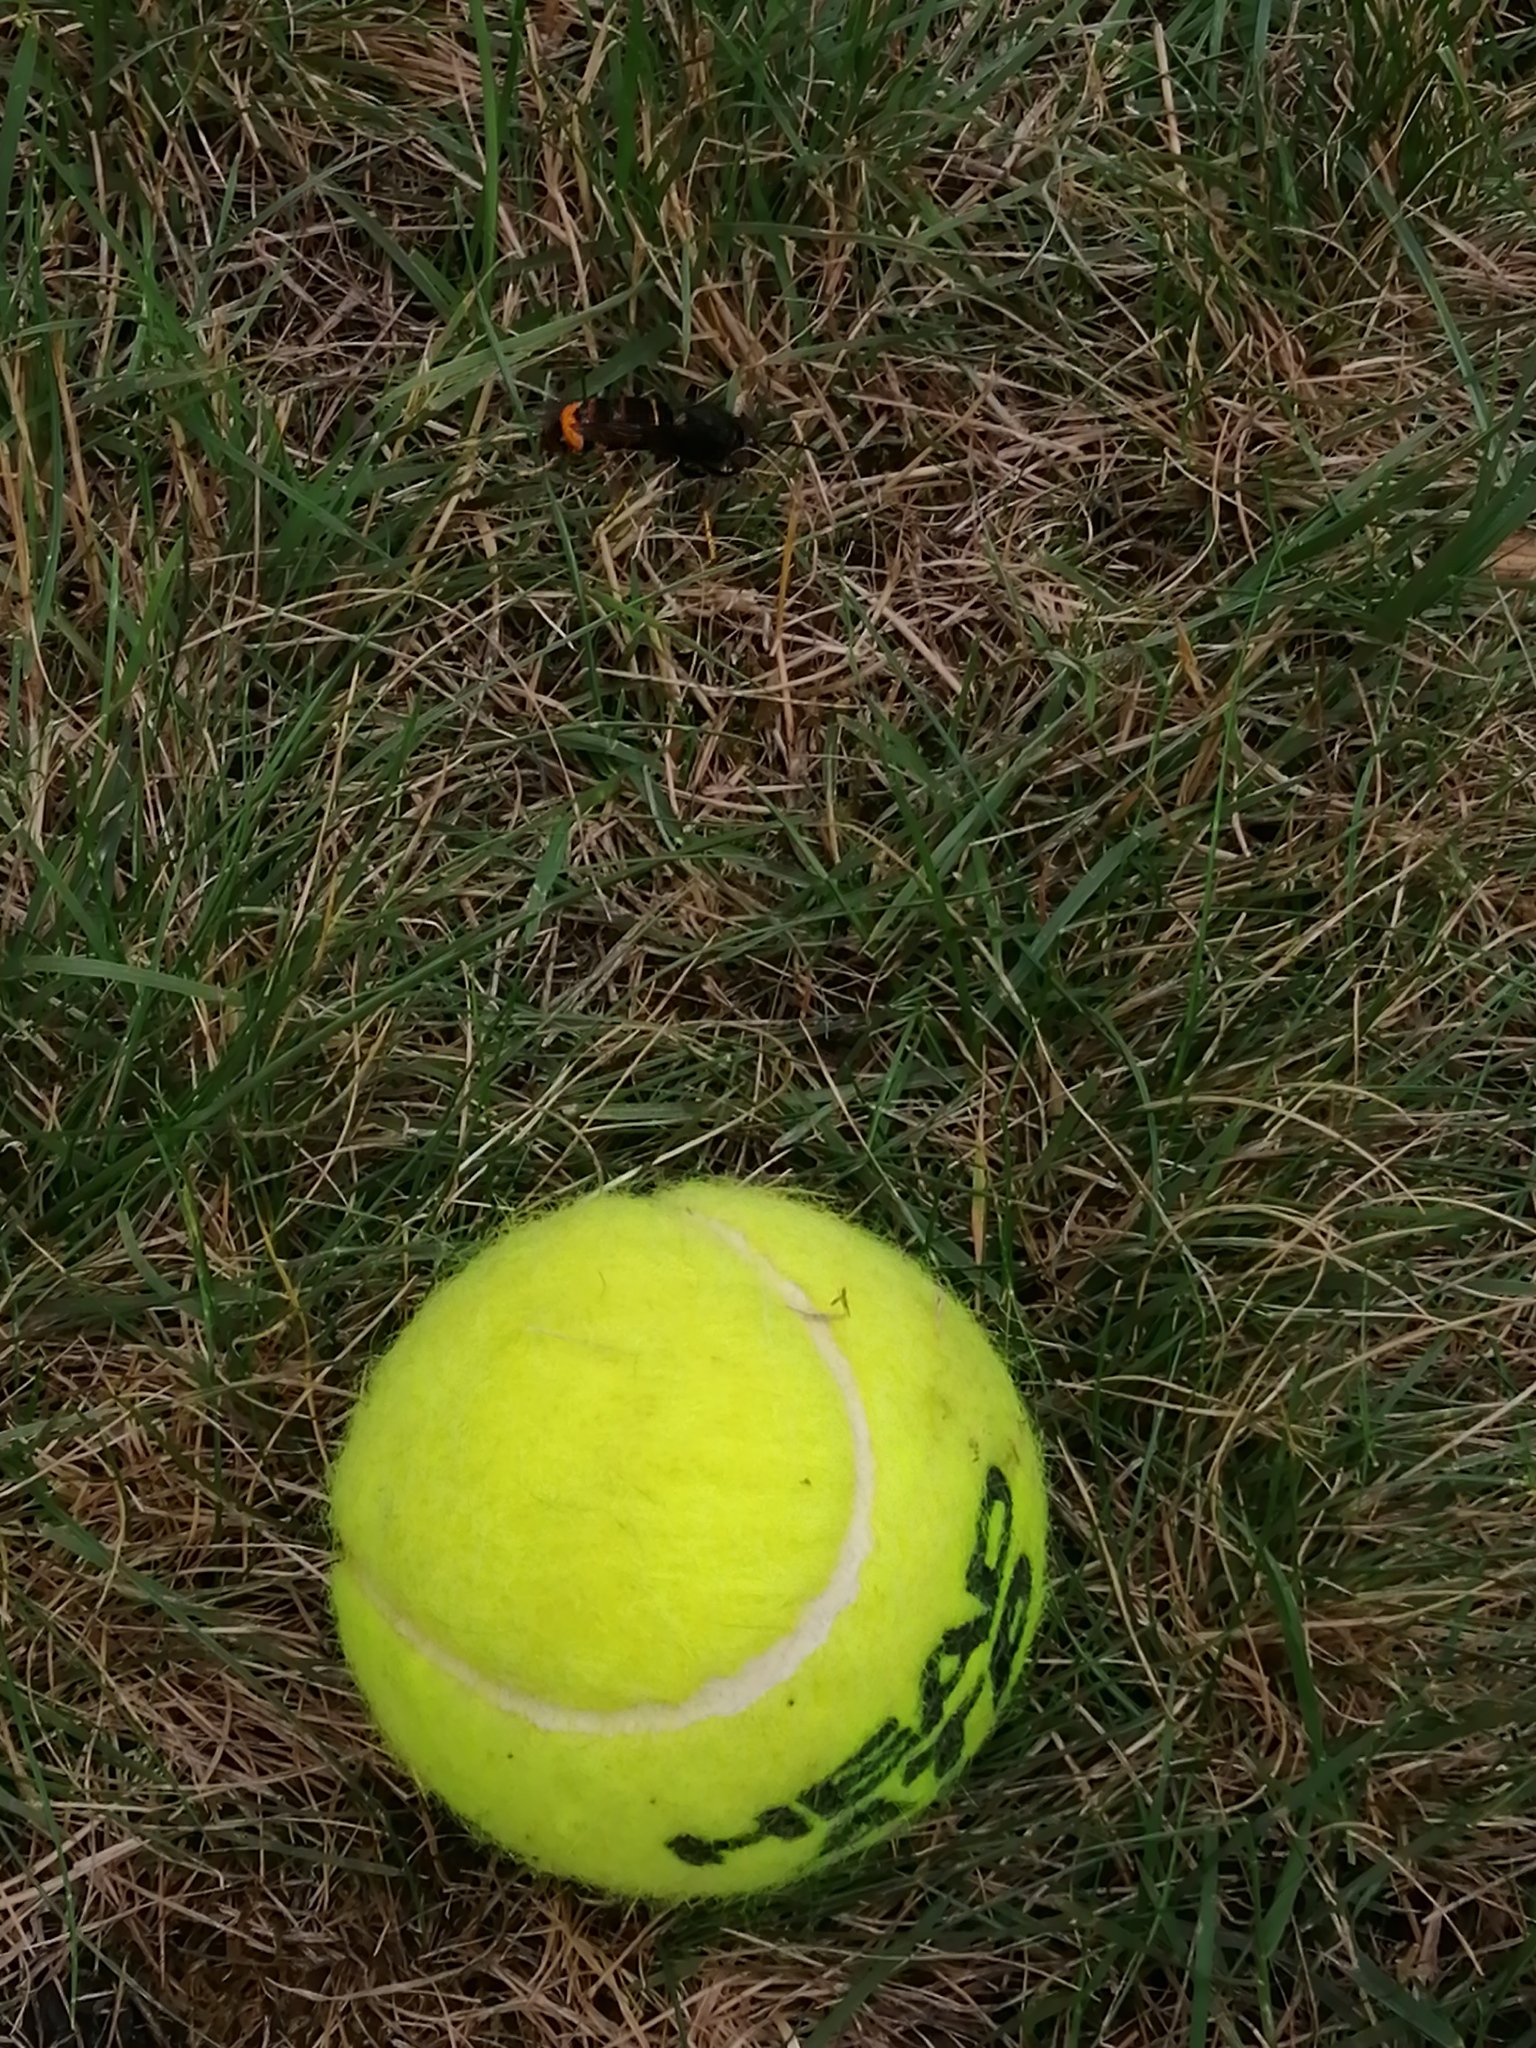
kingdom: Animalia
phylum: Arthropoda
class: Insecta
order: Hymenoptera
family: Vespidae
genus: Vespa
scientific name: Vespa velutina
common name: Asian hornet
